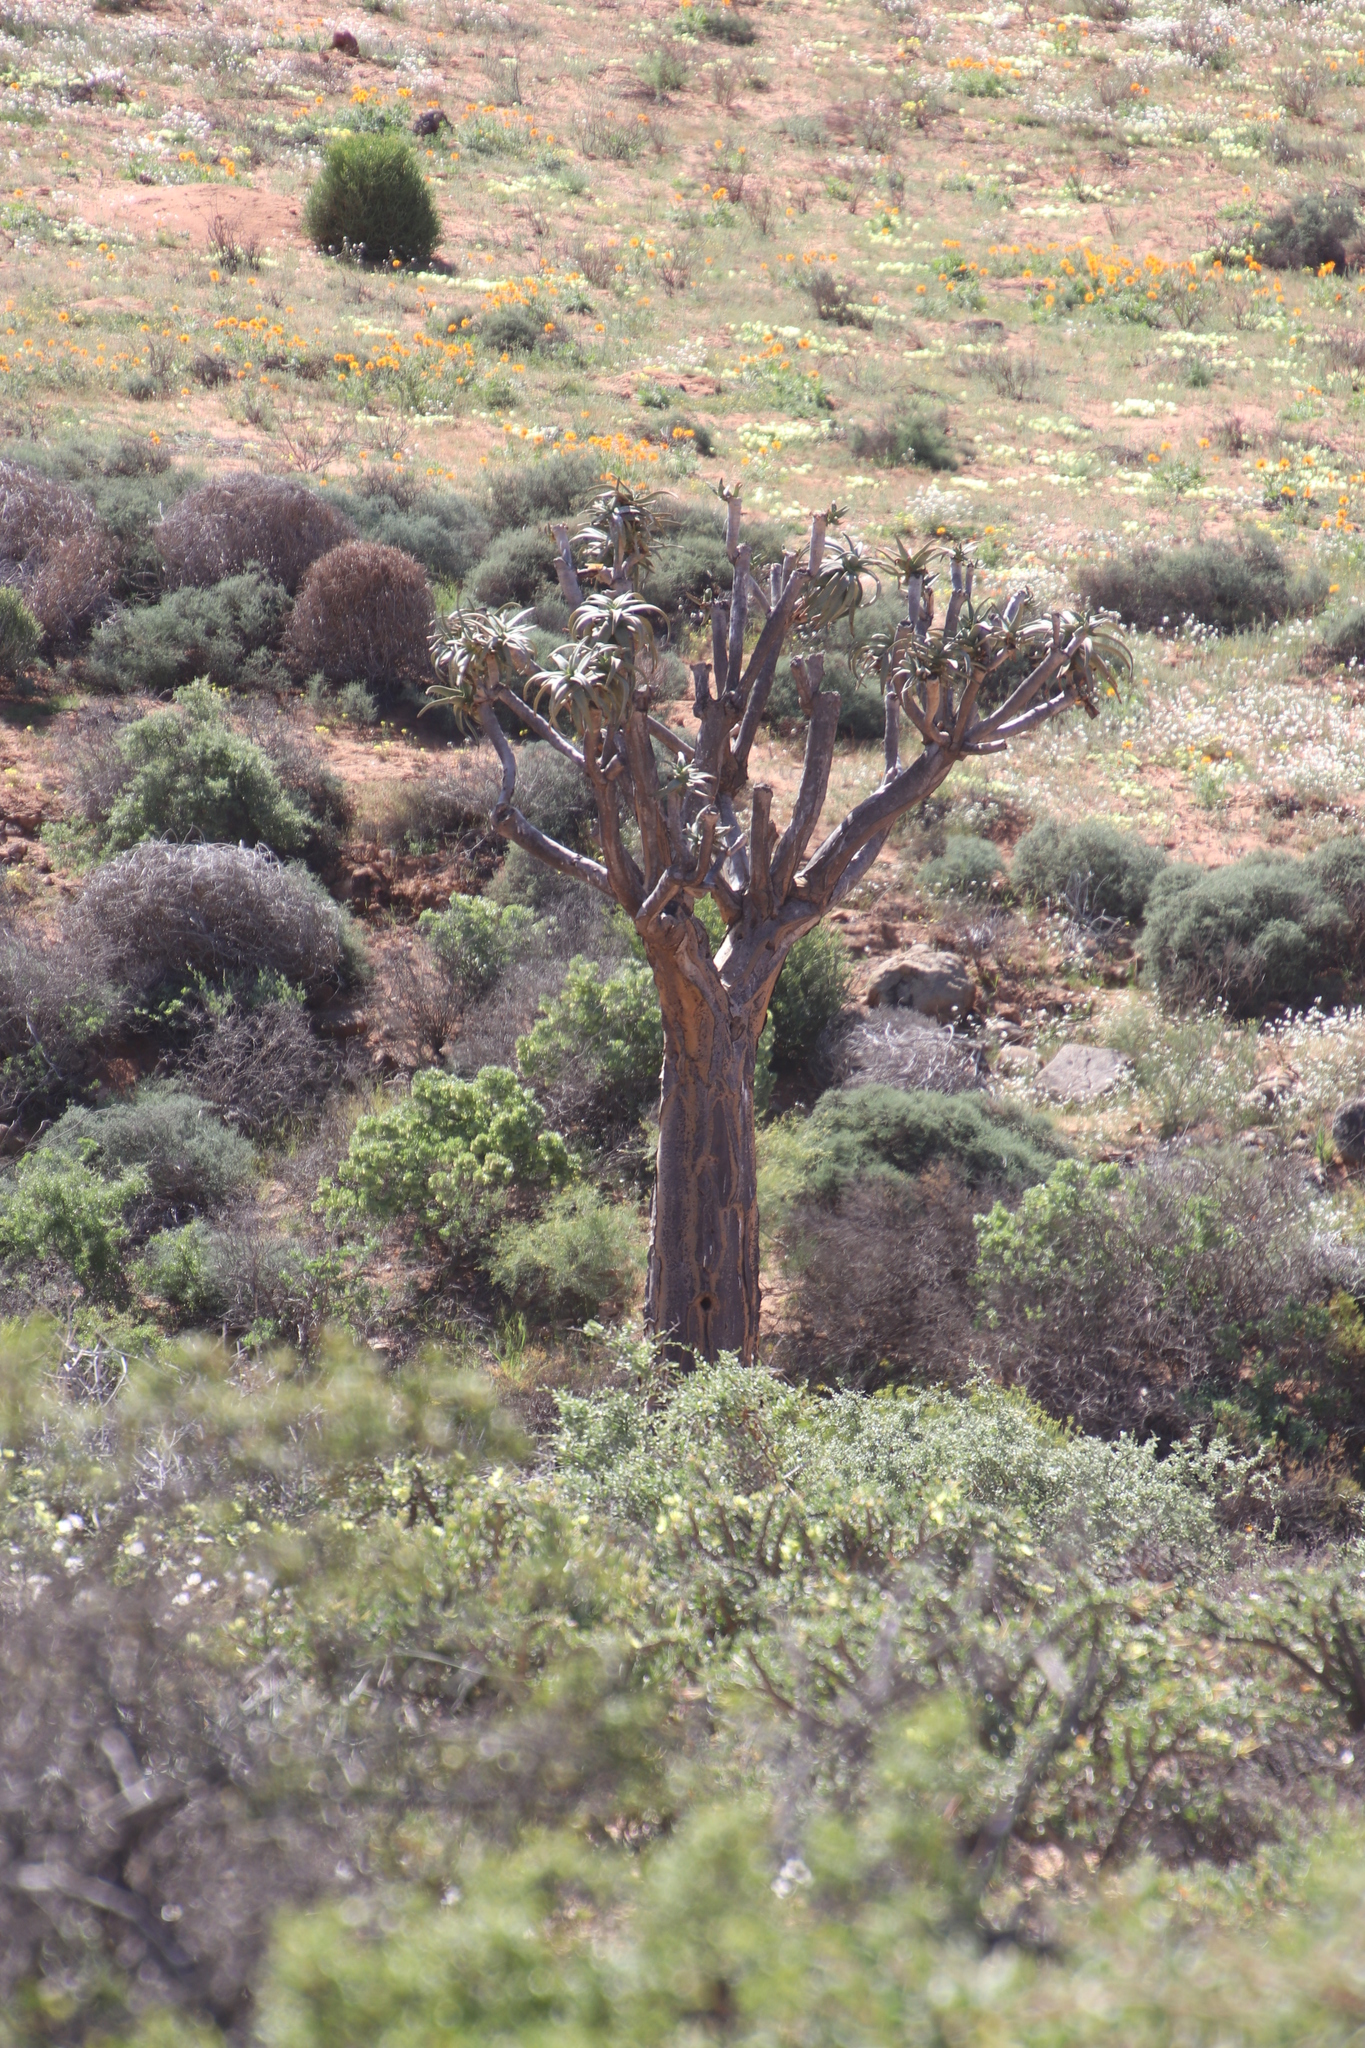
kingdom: Plantae
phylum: Tracheophyta
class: Liliopsida
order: Asparagales
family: Asphodelaceae
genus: Aloidendron
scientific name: Aloidendron dichotomum
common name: Quiver tree
